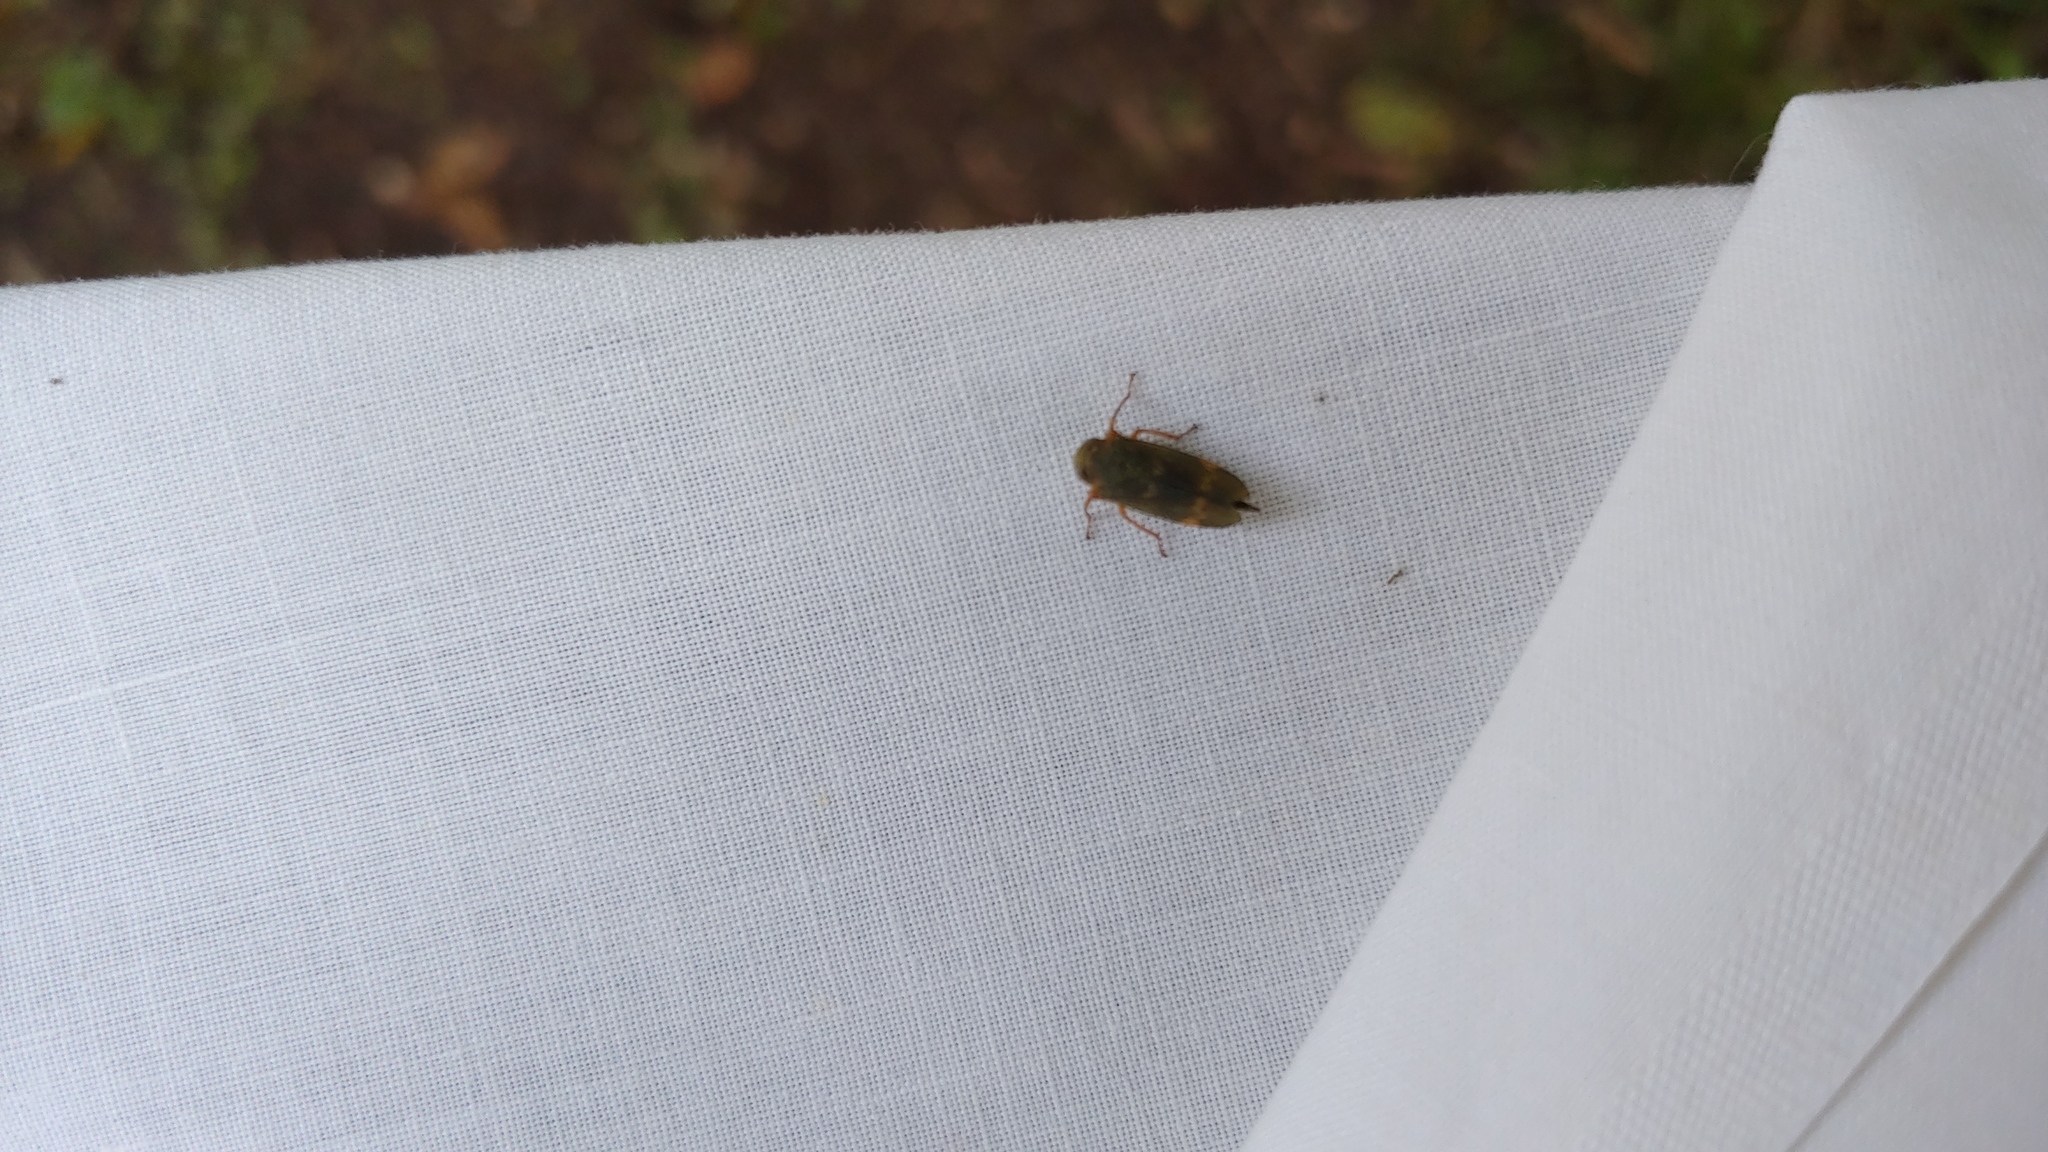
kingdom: Animalia
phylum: Arthropoda
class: Insecta
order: Hemiptera
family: Cicadellidae
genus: Jikradia
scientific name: Jikradia olitoria
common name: Coppery leafhopper
